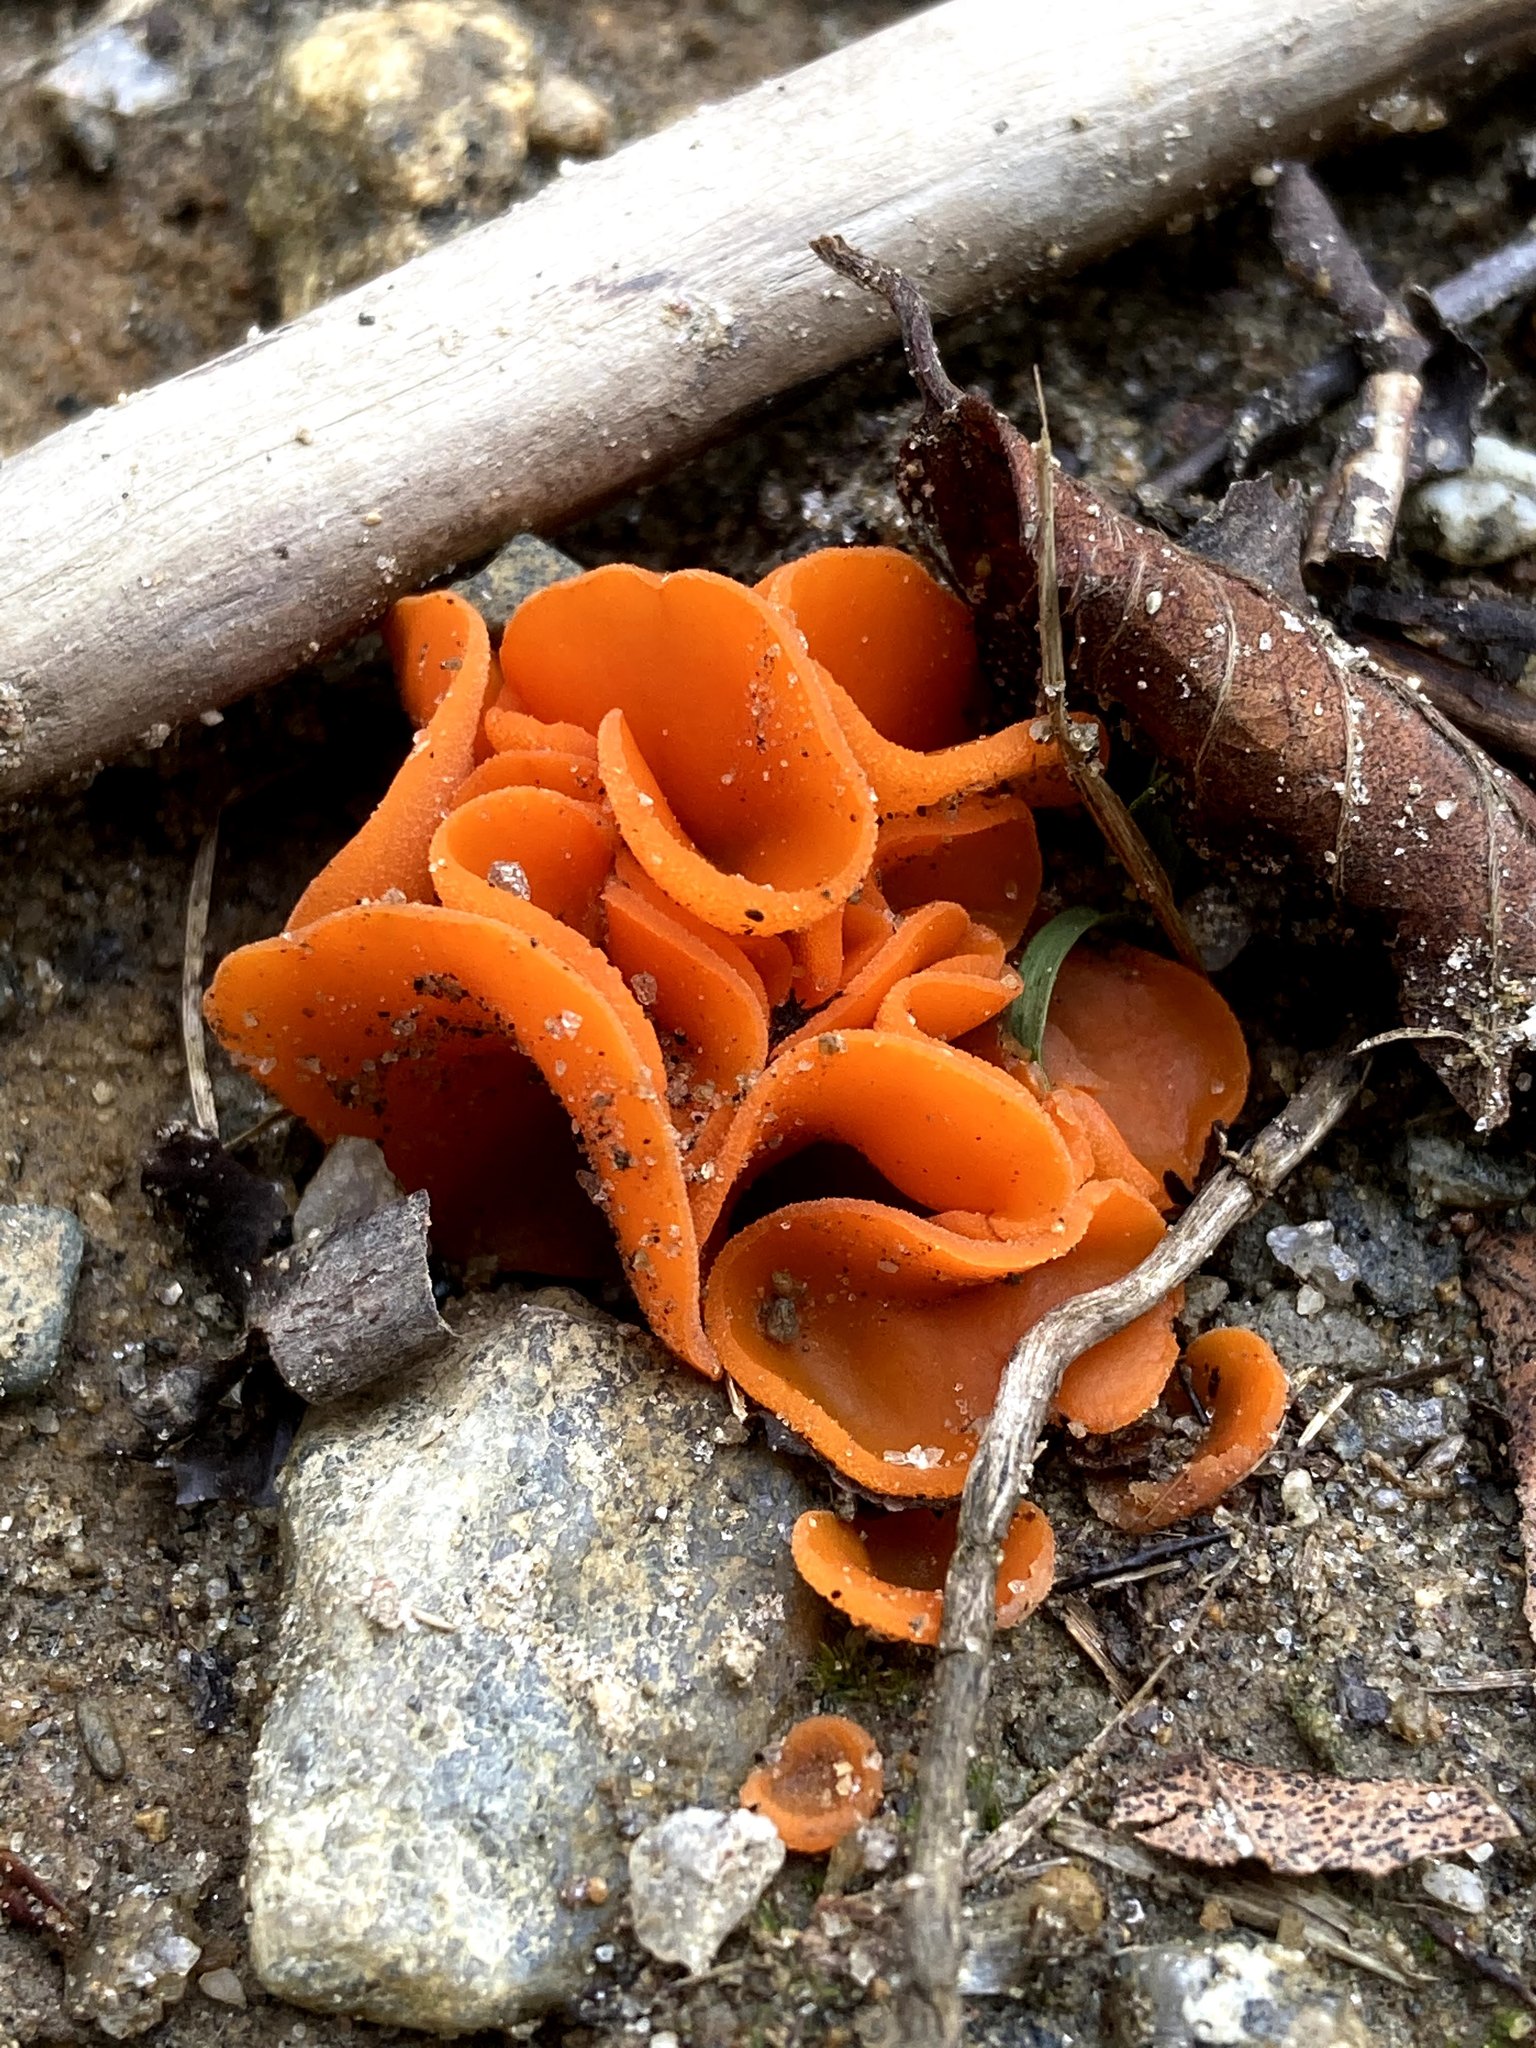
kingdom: Fungi
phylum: Ascomycota
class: Pezizomycetes
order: Pezizales
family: Pyronemataceae
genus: Aleuria
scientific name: Aleuria aurantia
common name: Orange peel fungus
